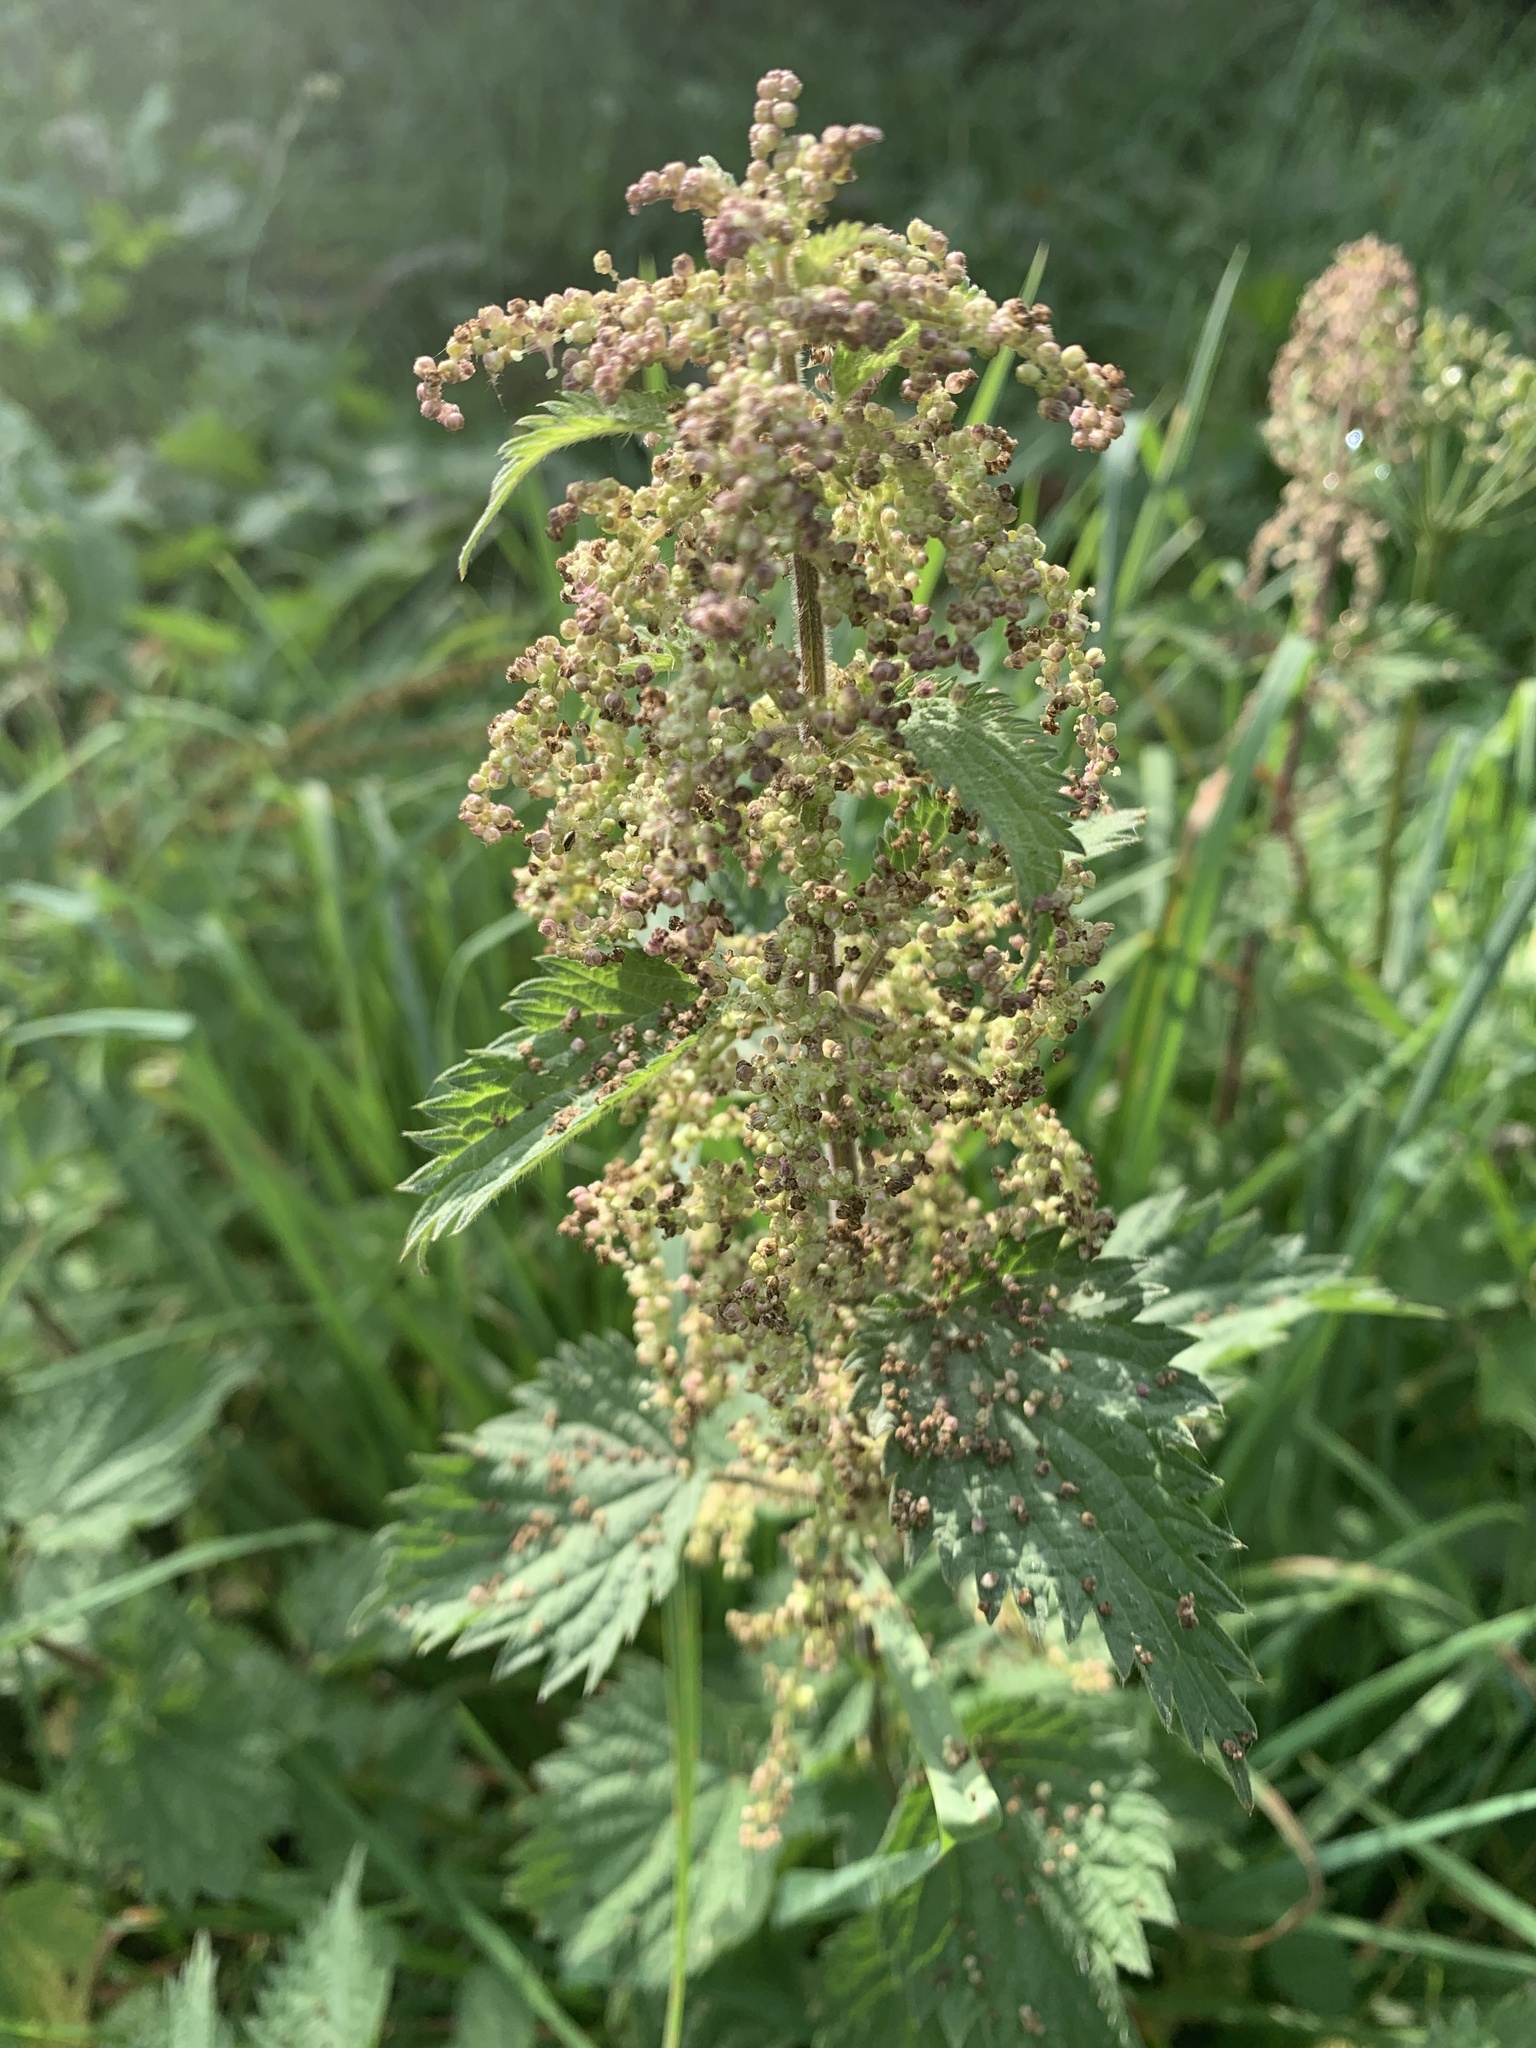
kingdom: Plantae
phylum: Tracheophyta
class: Magnoliopsida
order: Rosales
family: Urticaceae
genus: Urtica
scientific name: Urtica dioica
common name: Common nettle
